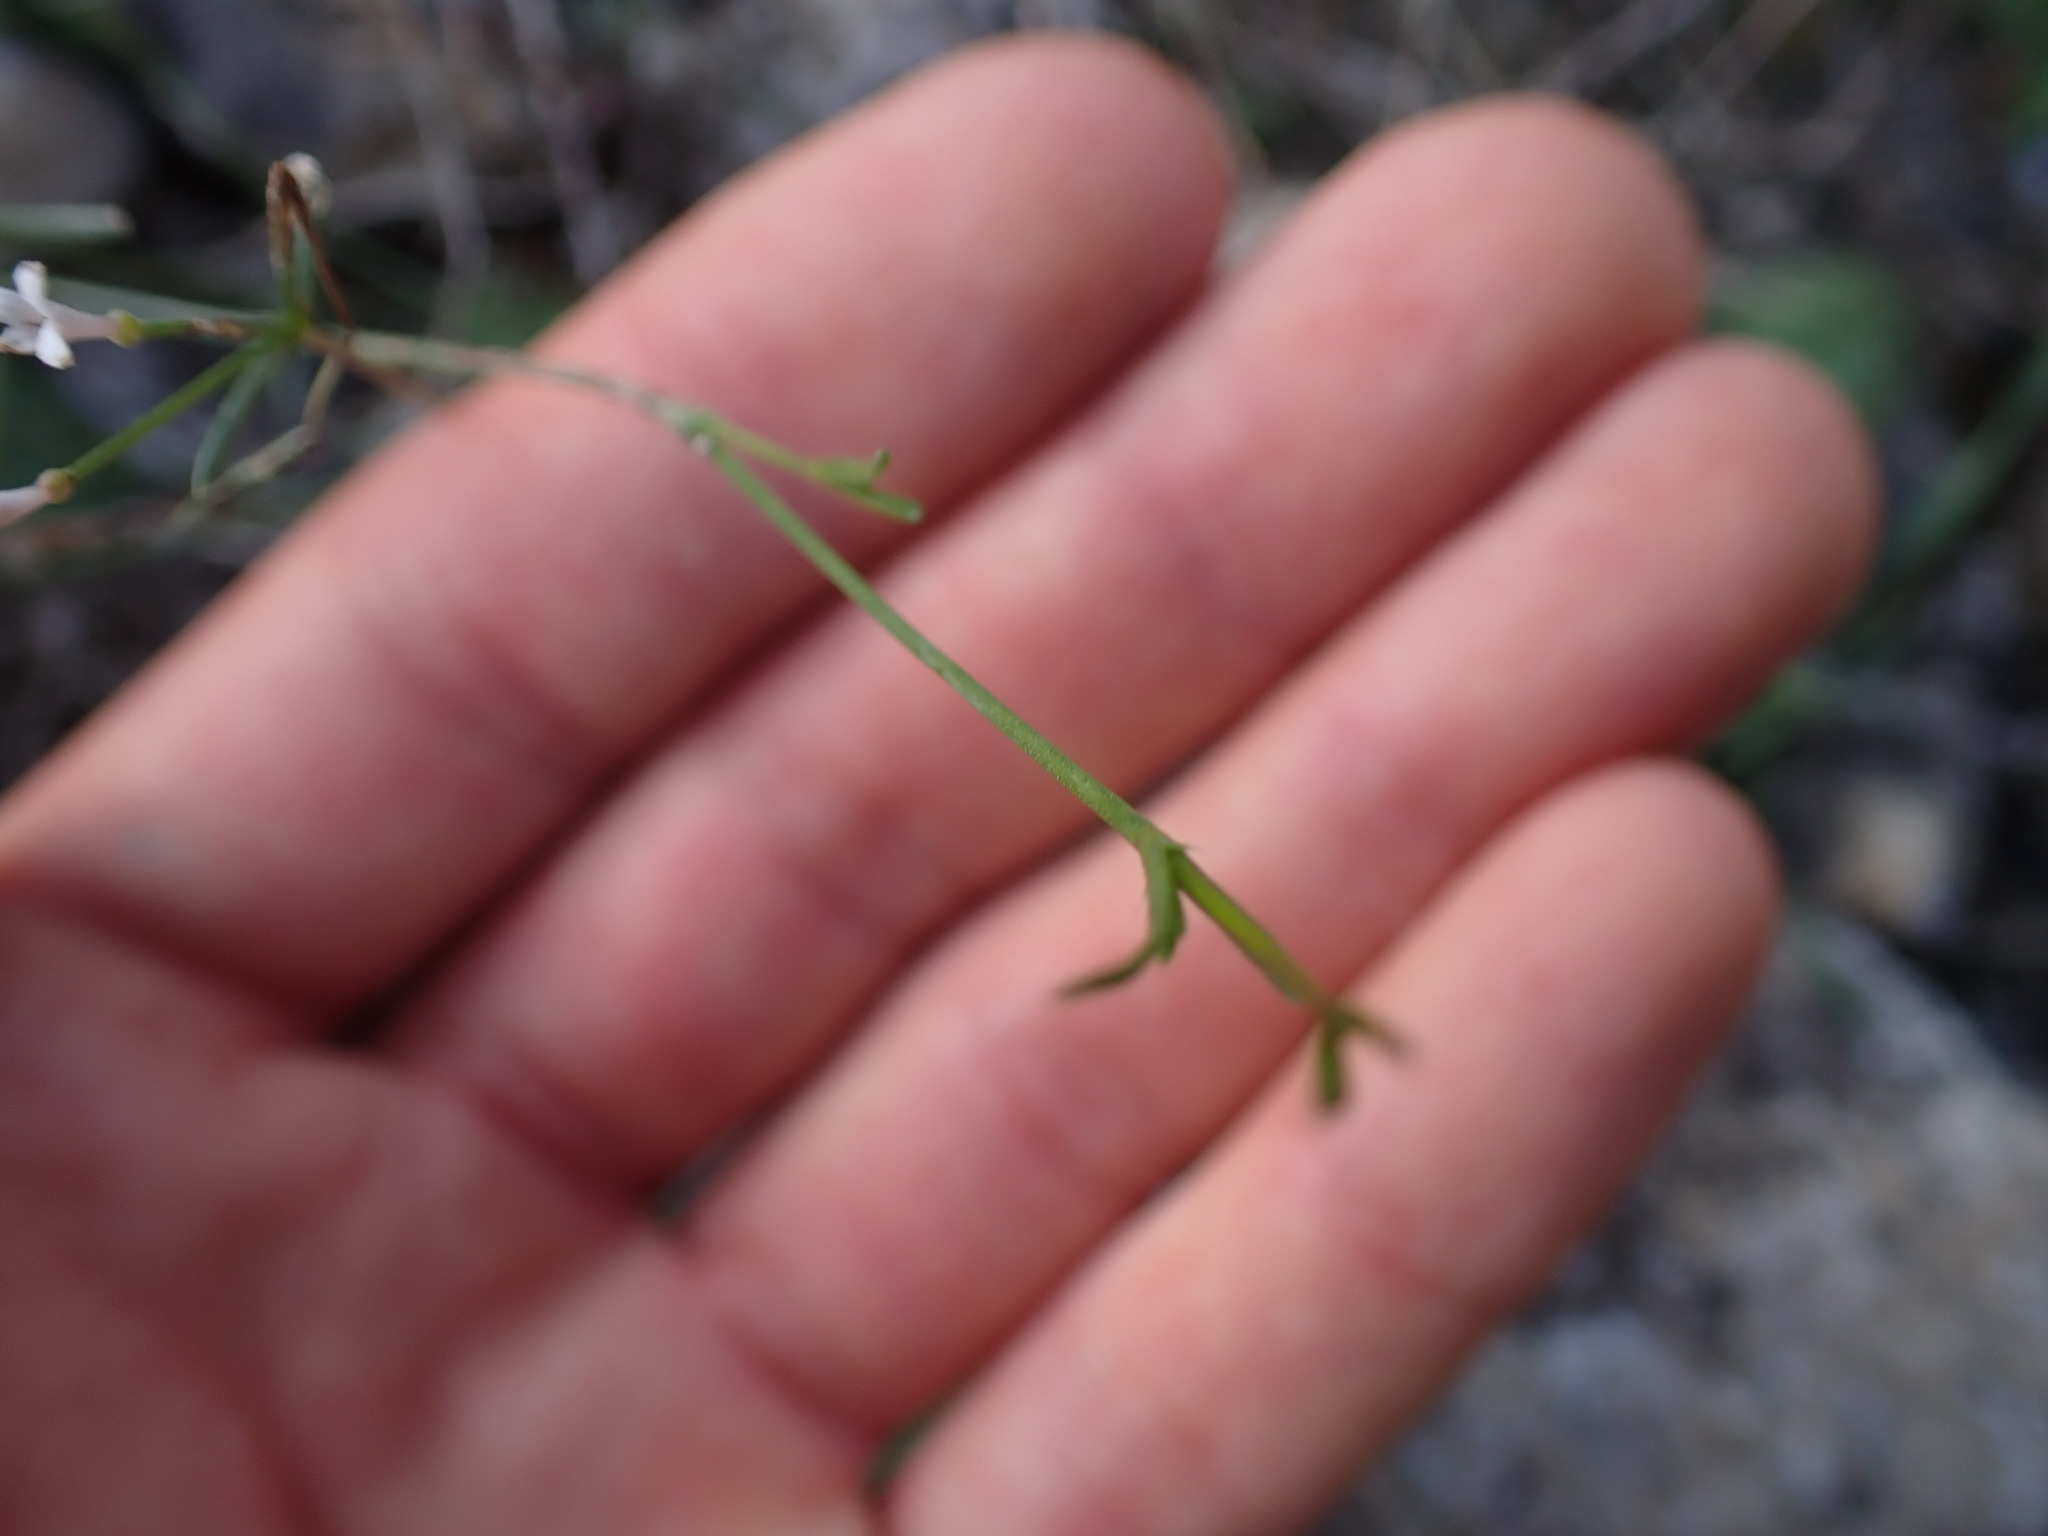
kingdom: Plantae
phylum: Tracheophyta
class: Magnoliopsida
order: Gentianales
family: Rubiaceae
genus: Cynanchica
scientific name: Cynanchica pyrenaica
